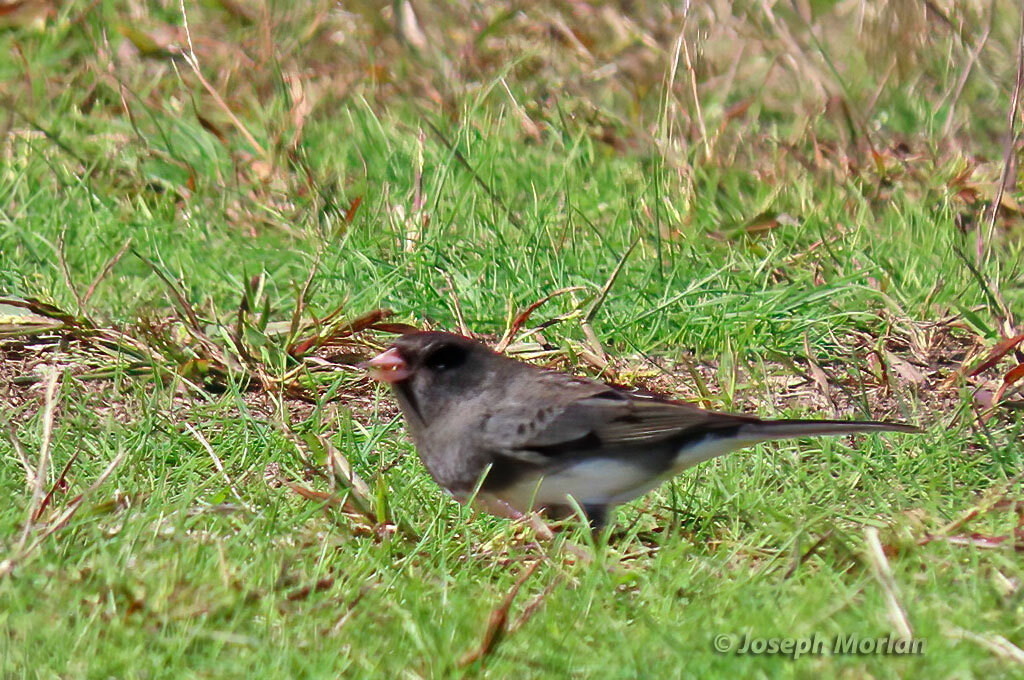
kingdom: Animalia
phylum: Chordata
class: Aves
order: Passeriformes
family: Passerellidae
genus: Junco
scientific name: Junco hyemalis
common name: Dark-eyed junco
